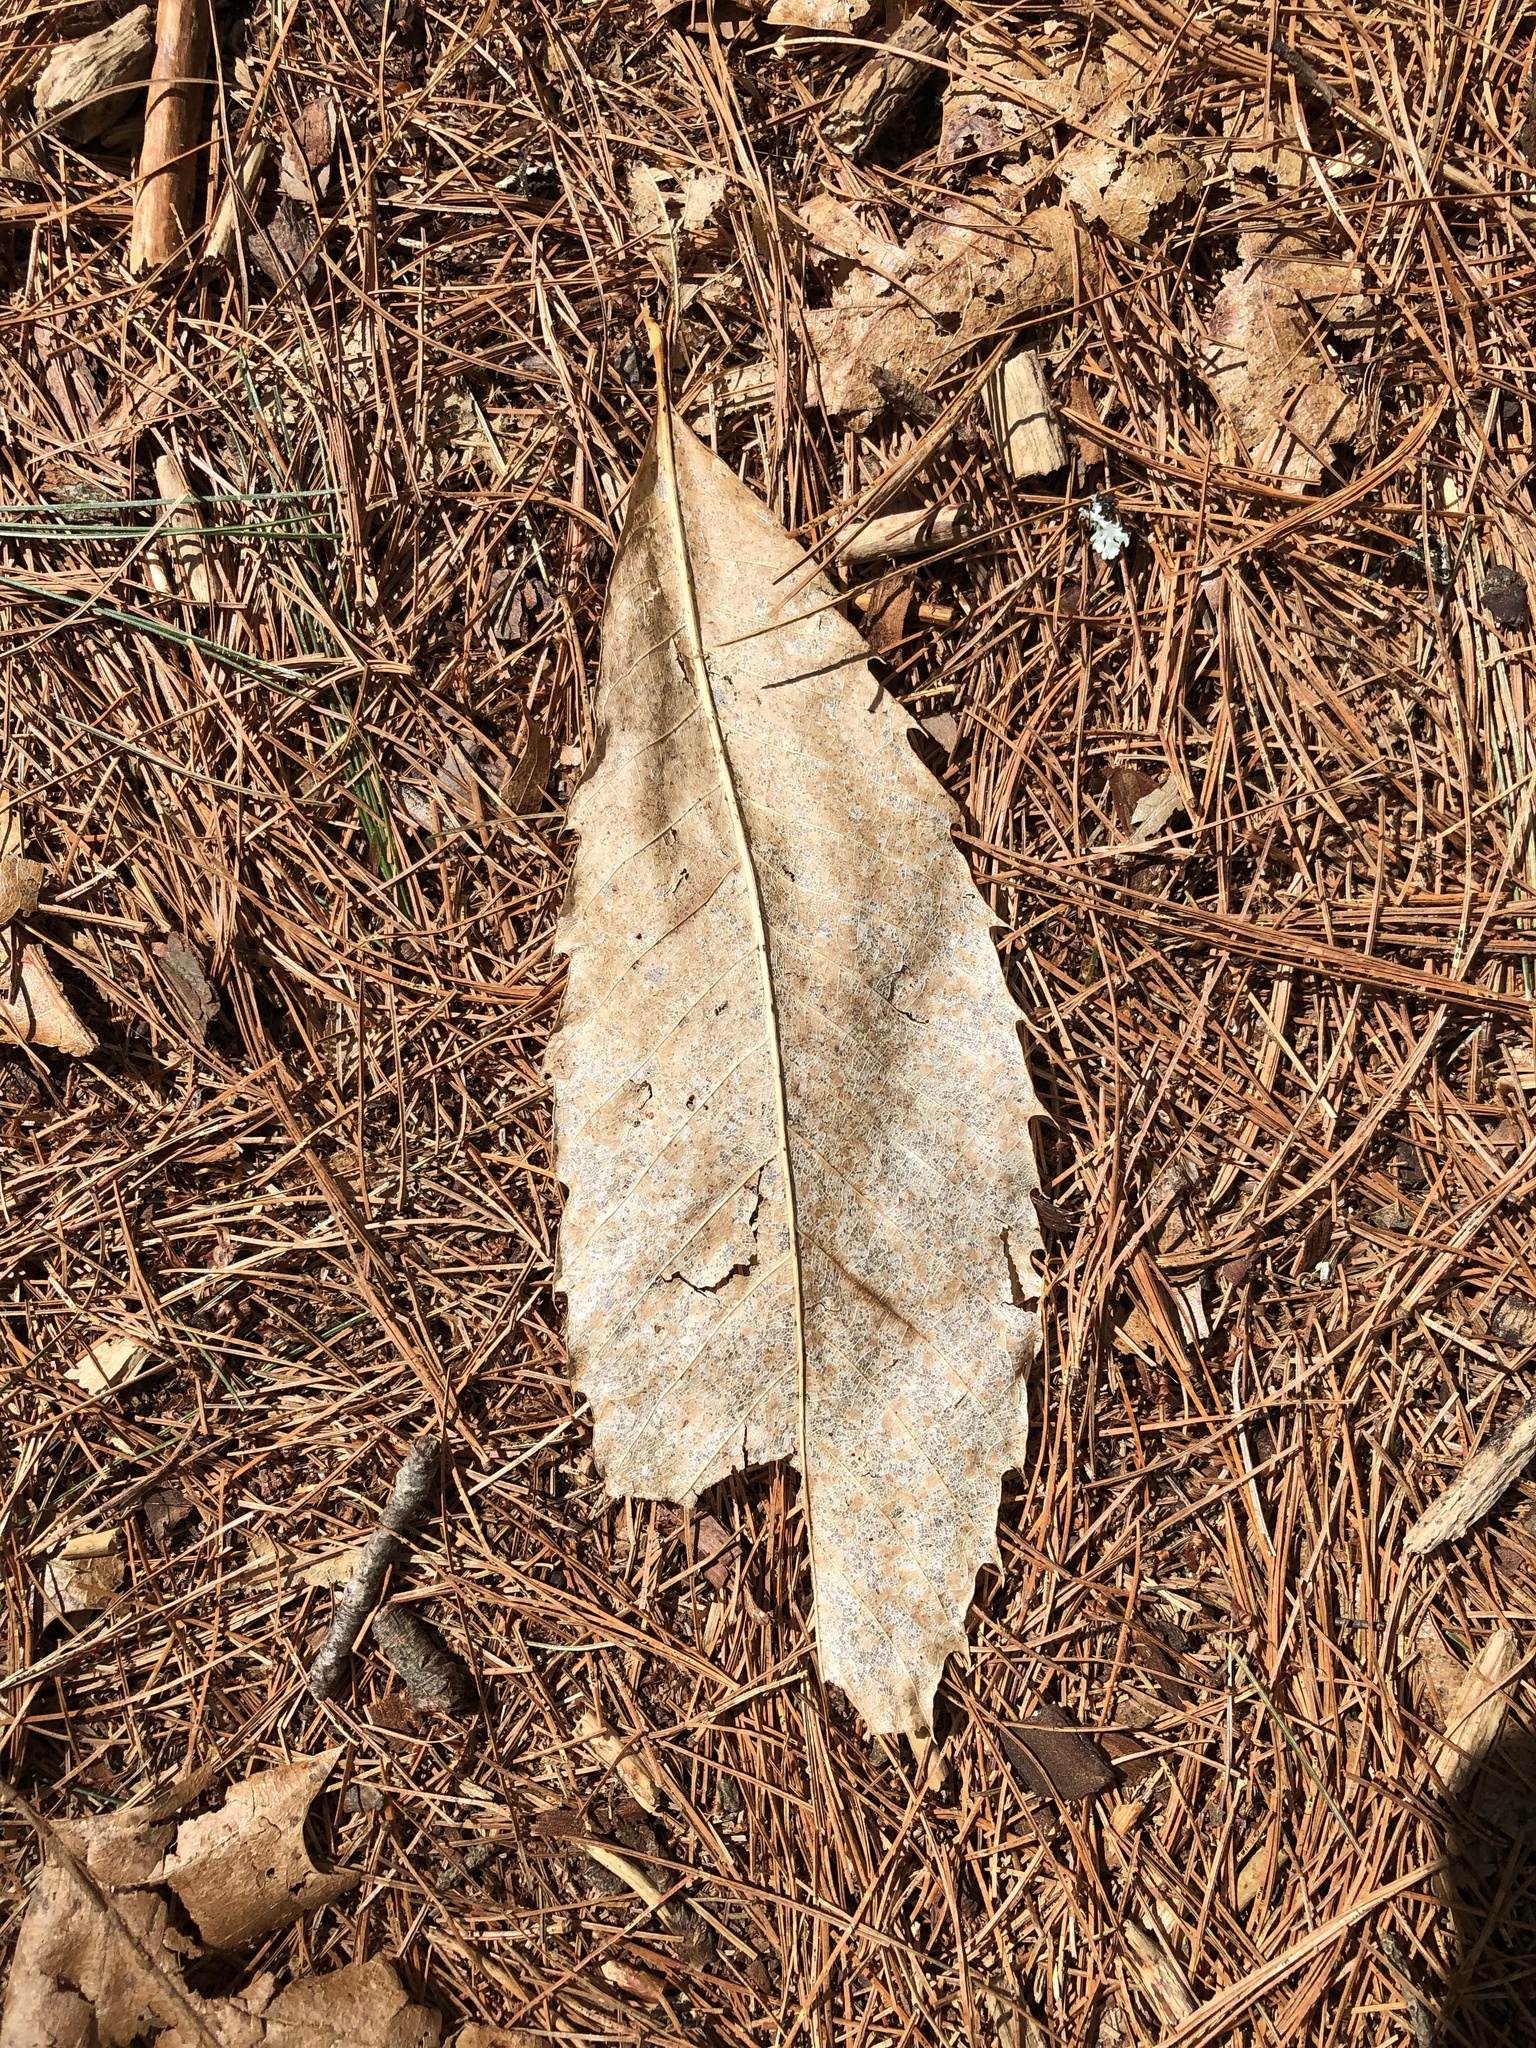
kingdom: Plantae
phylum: Tracheophyta
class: Magnoliopsida
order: Fagales
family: Fagaceae
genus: Castanea
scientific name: Castanea dentata
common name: American chestnut
